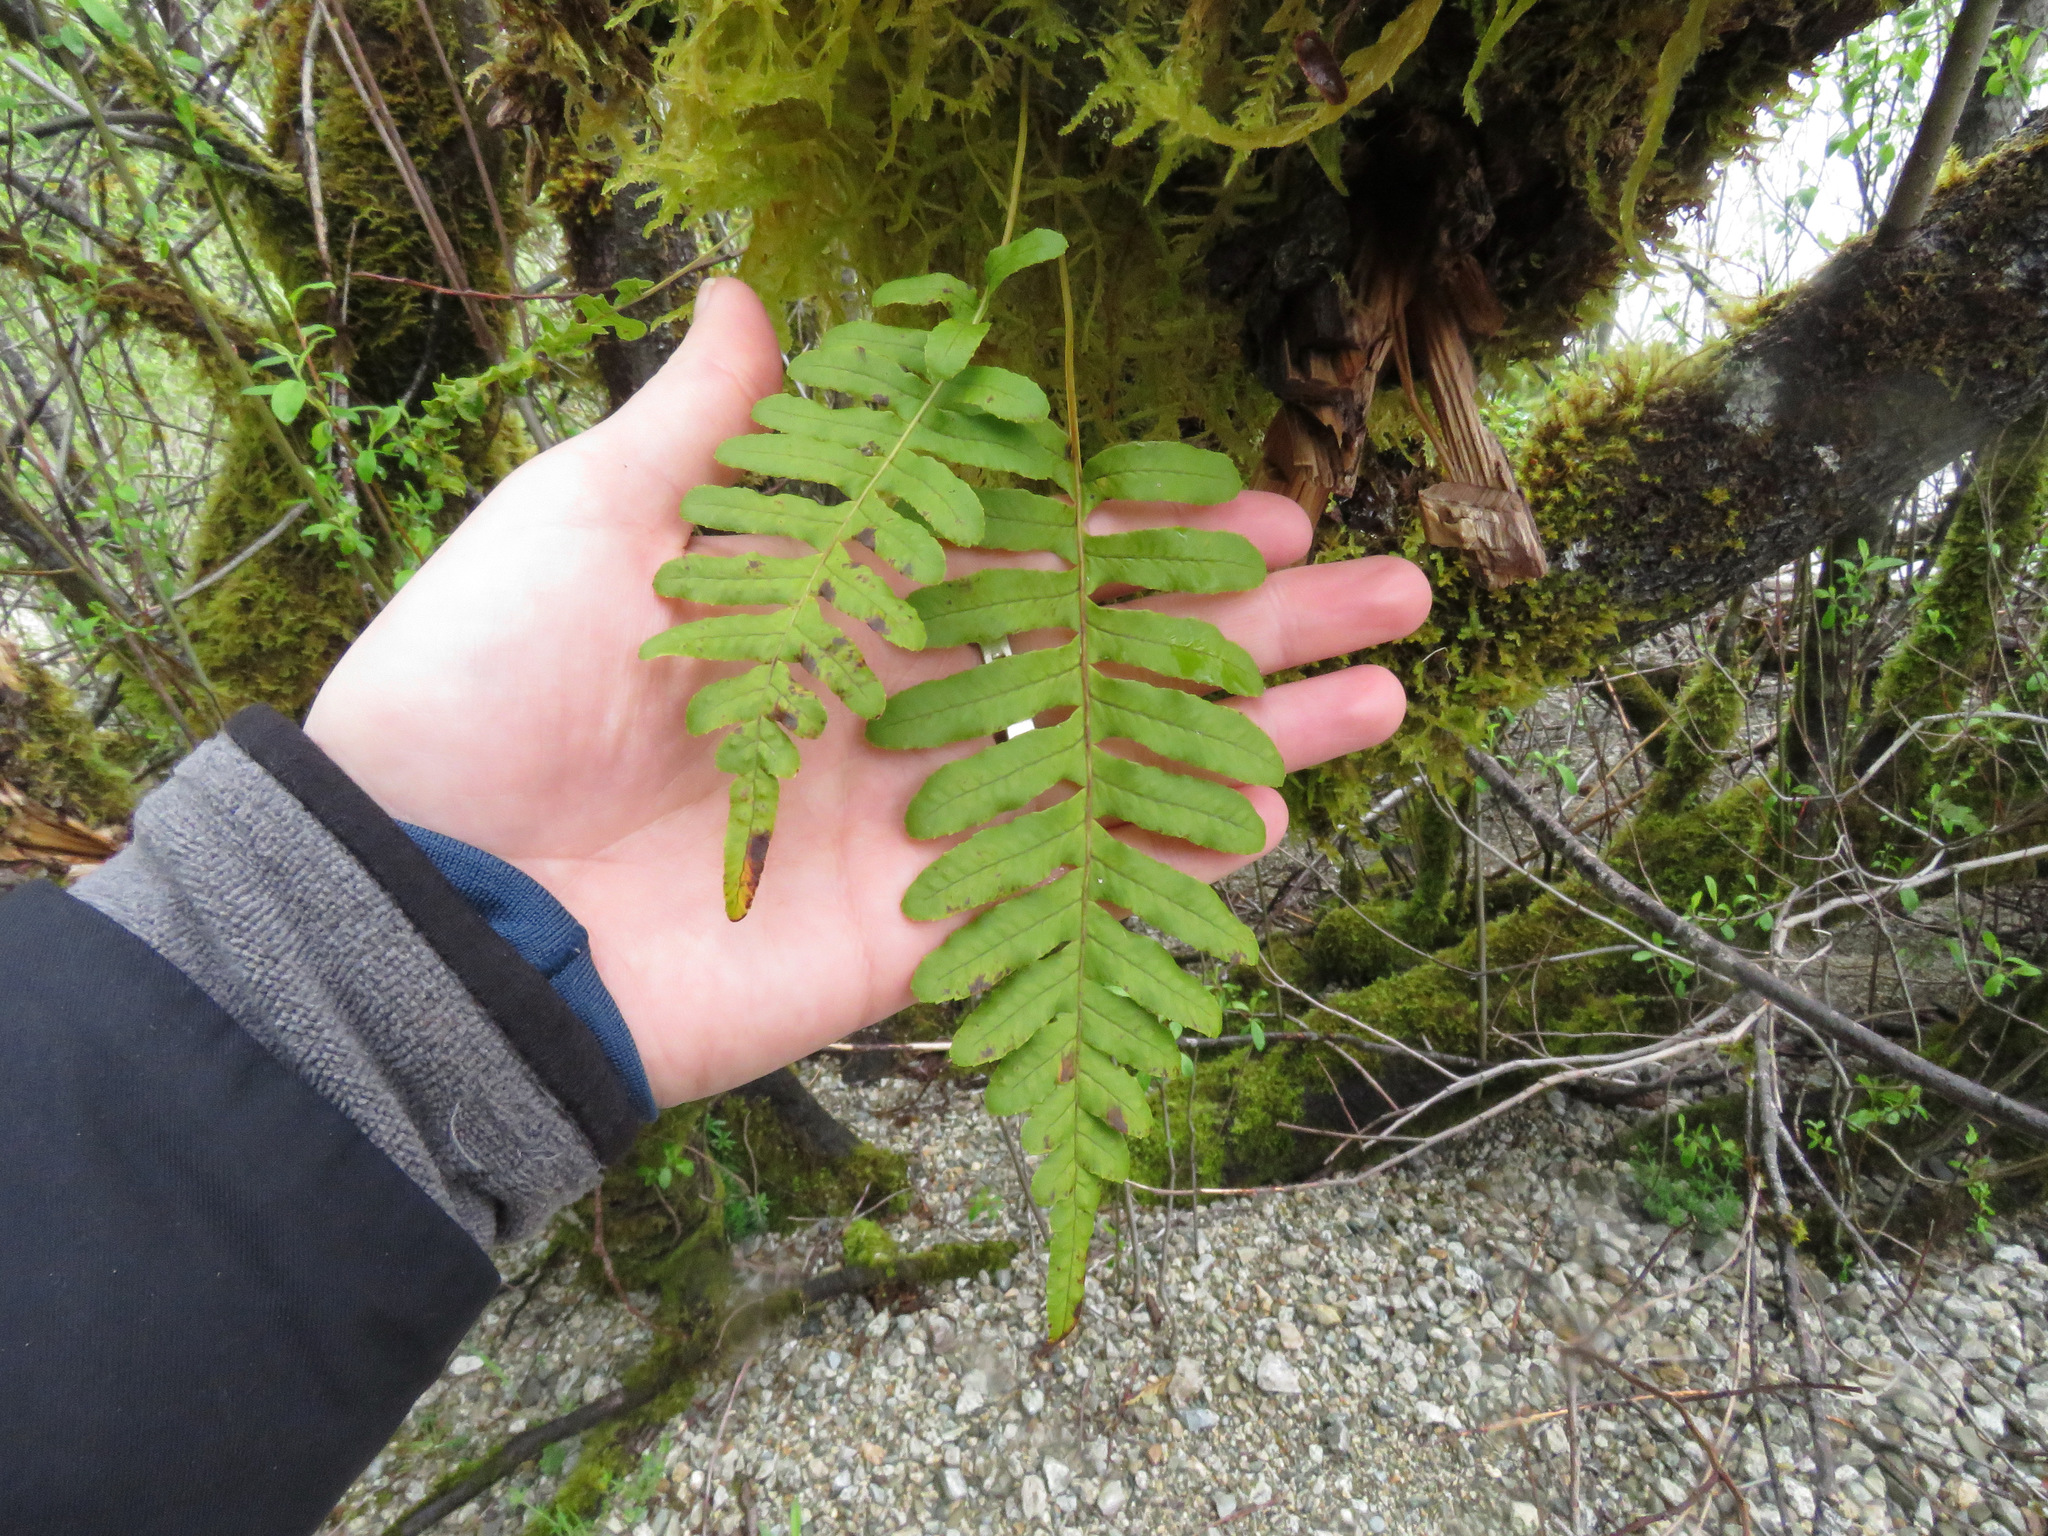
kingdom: Plantae
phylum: Tracheophyta
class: Polypodiopsida
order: Polypodiales
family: Polypodiaceae
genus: Polypodium
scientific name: Polypodium glycyrrhiza
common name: Licorice fern
